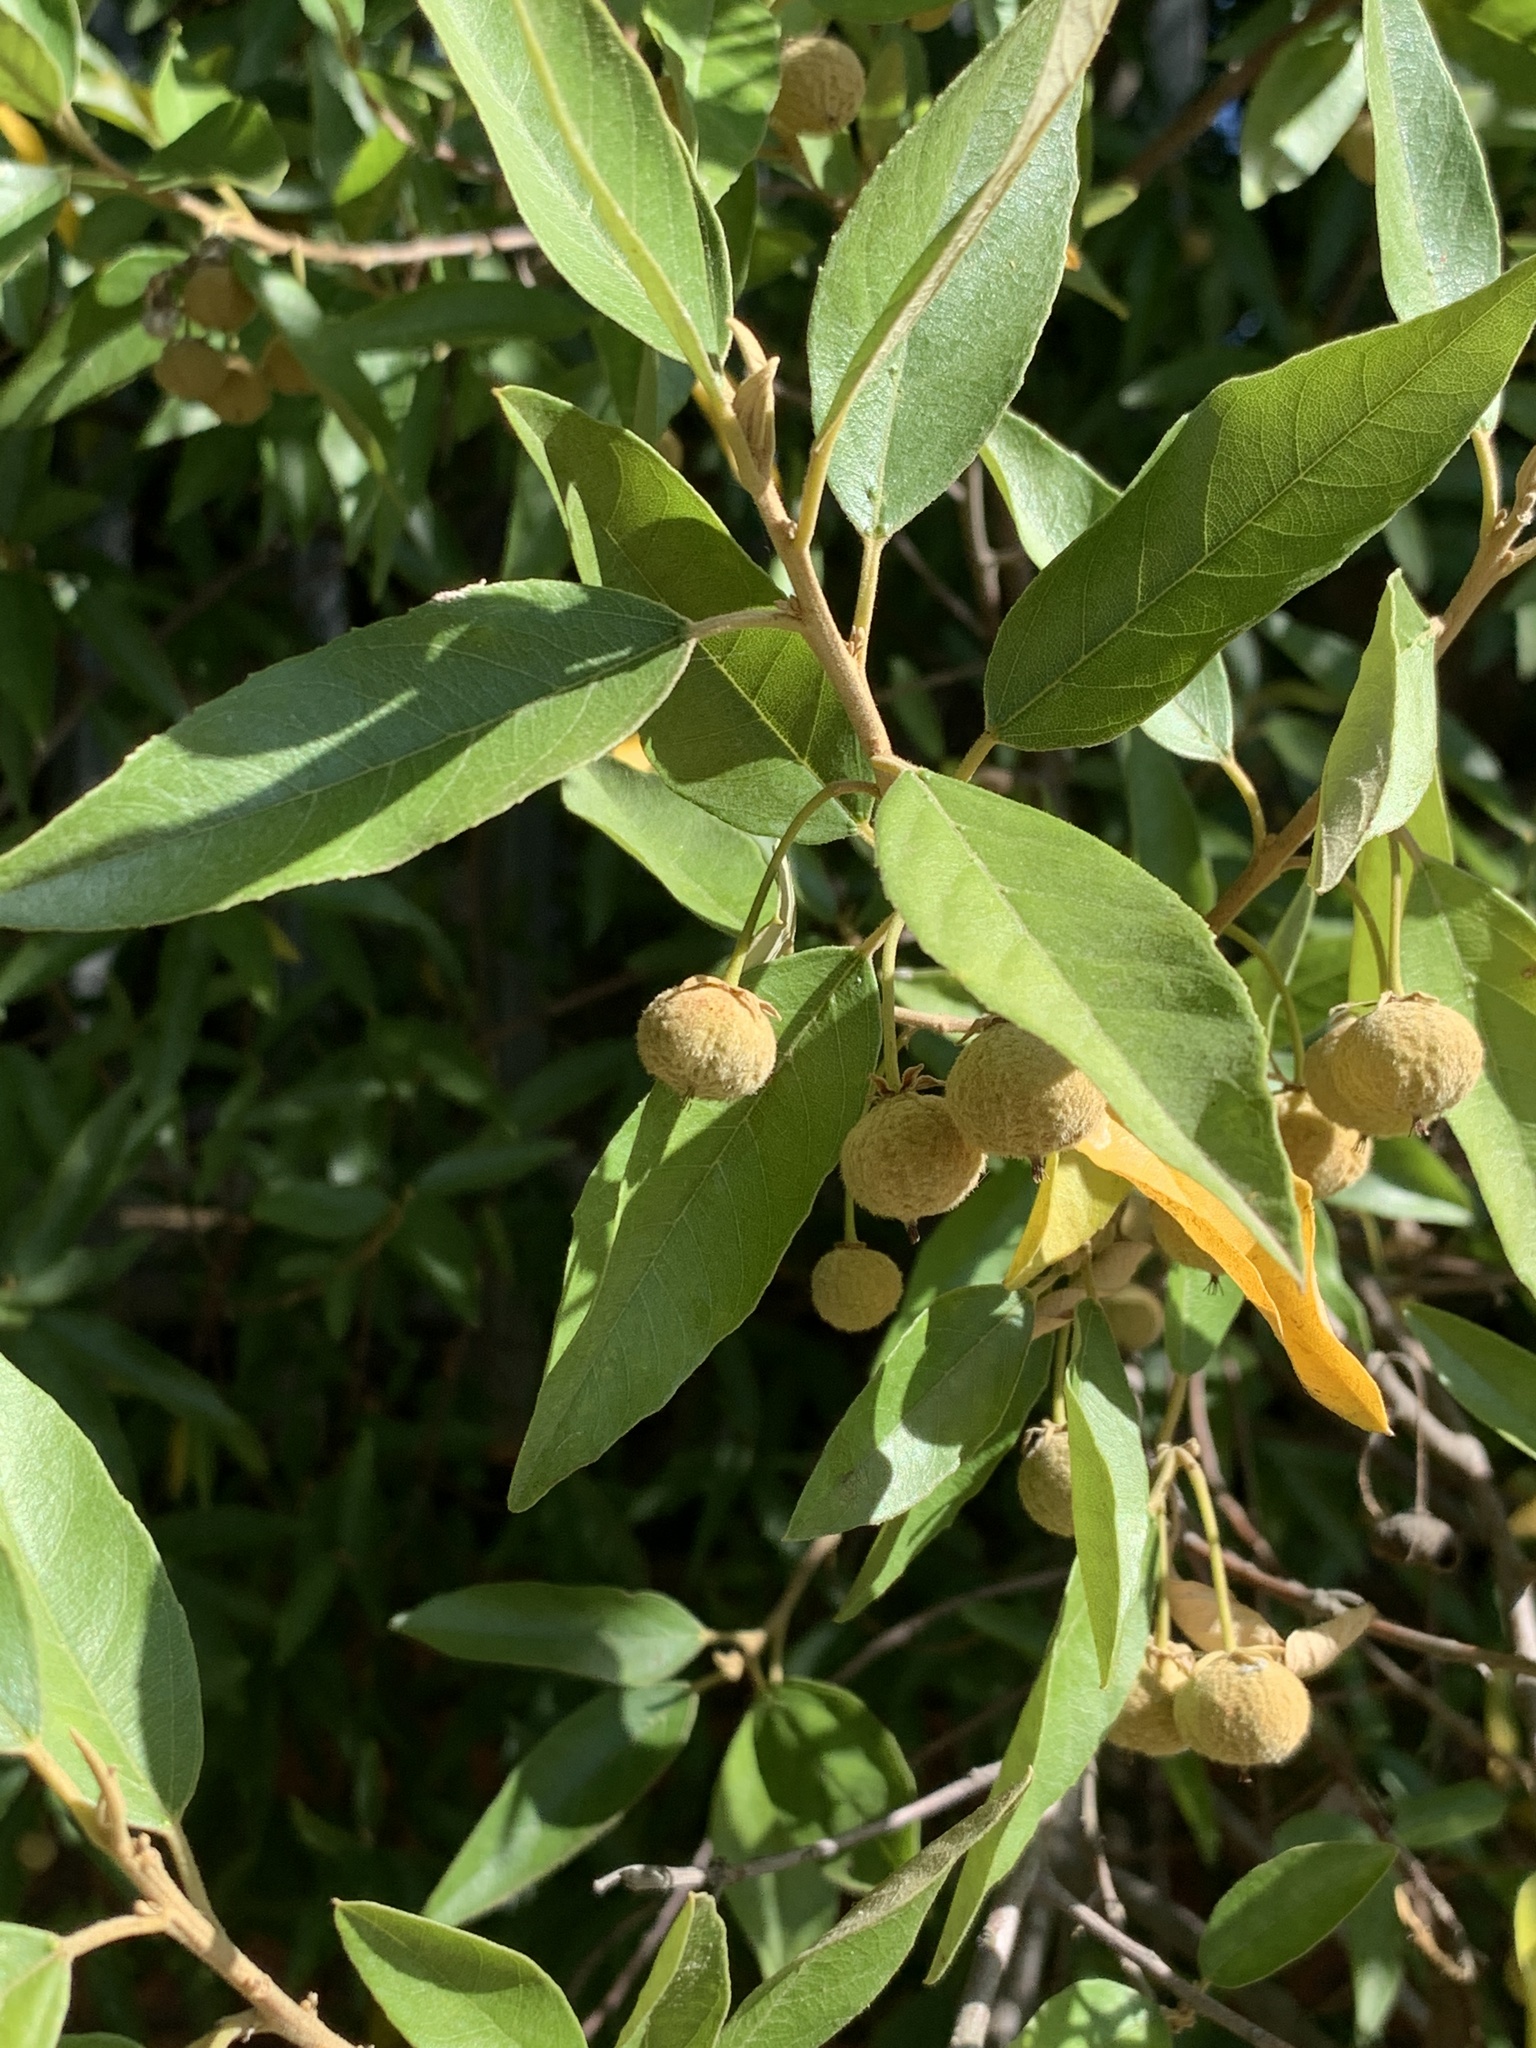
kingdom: Plantae
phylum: Tracheophyta
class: Magnoliopsida
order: Malpighiales
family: Achariaceae
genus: Kiggelaria
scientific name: Kiggelaria africana
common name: Wild peach
